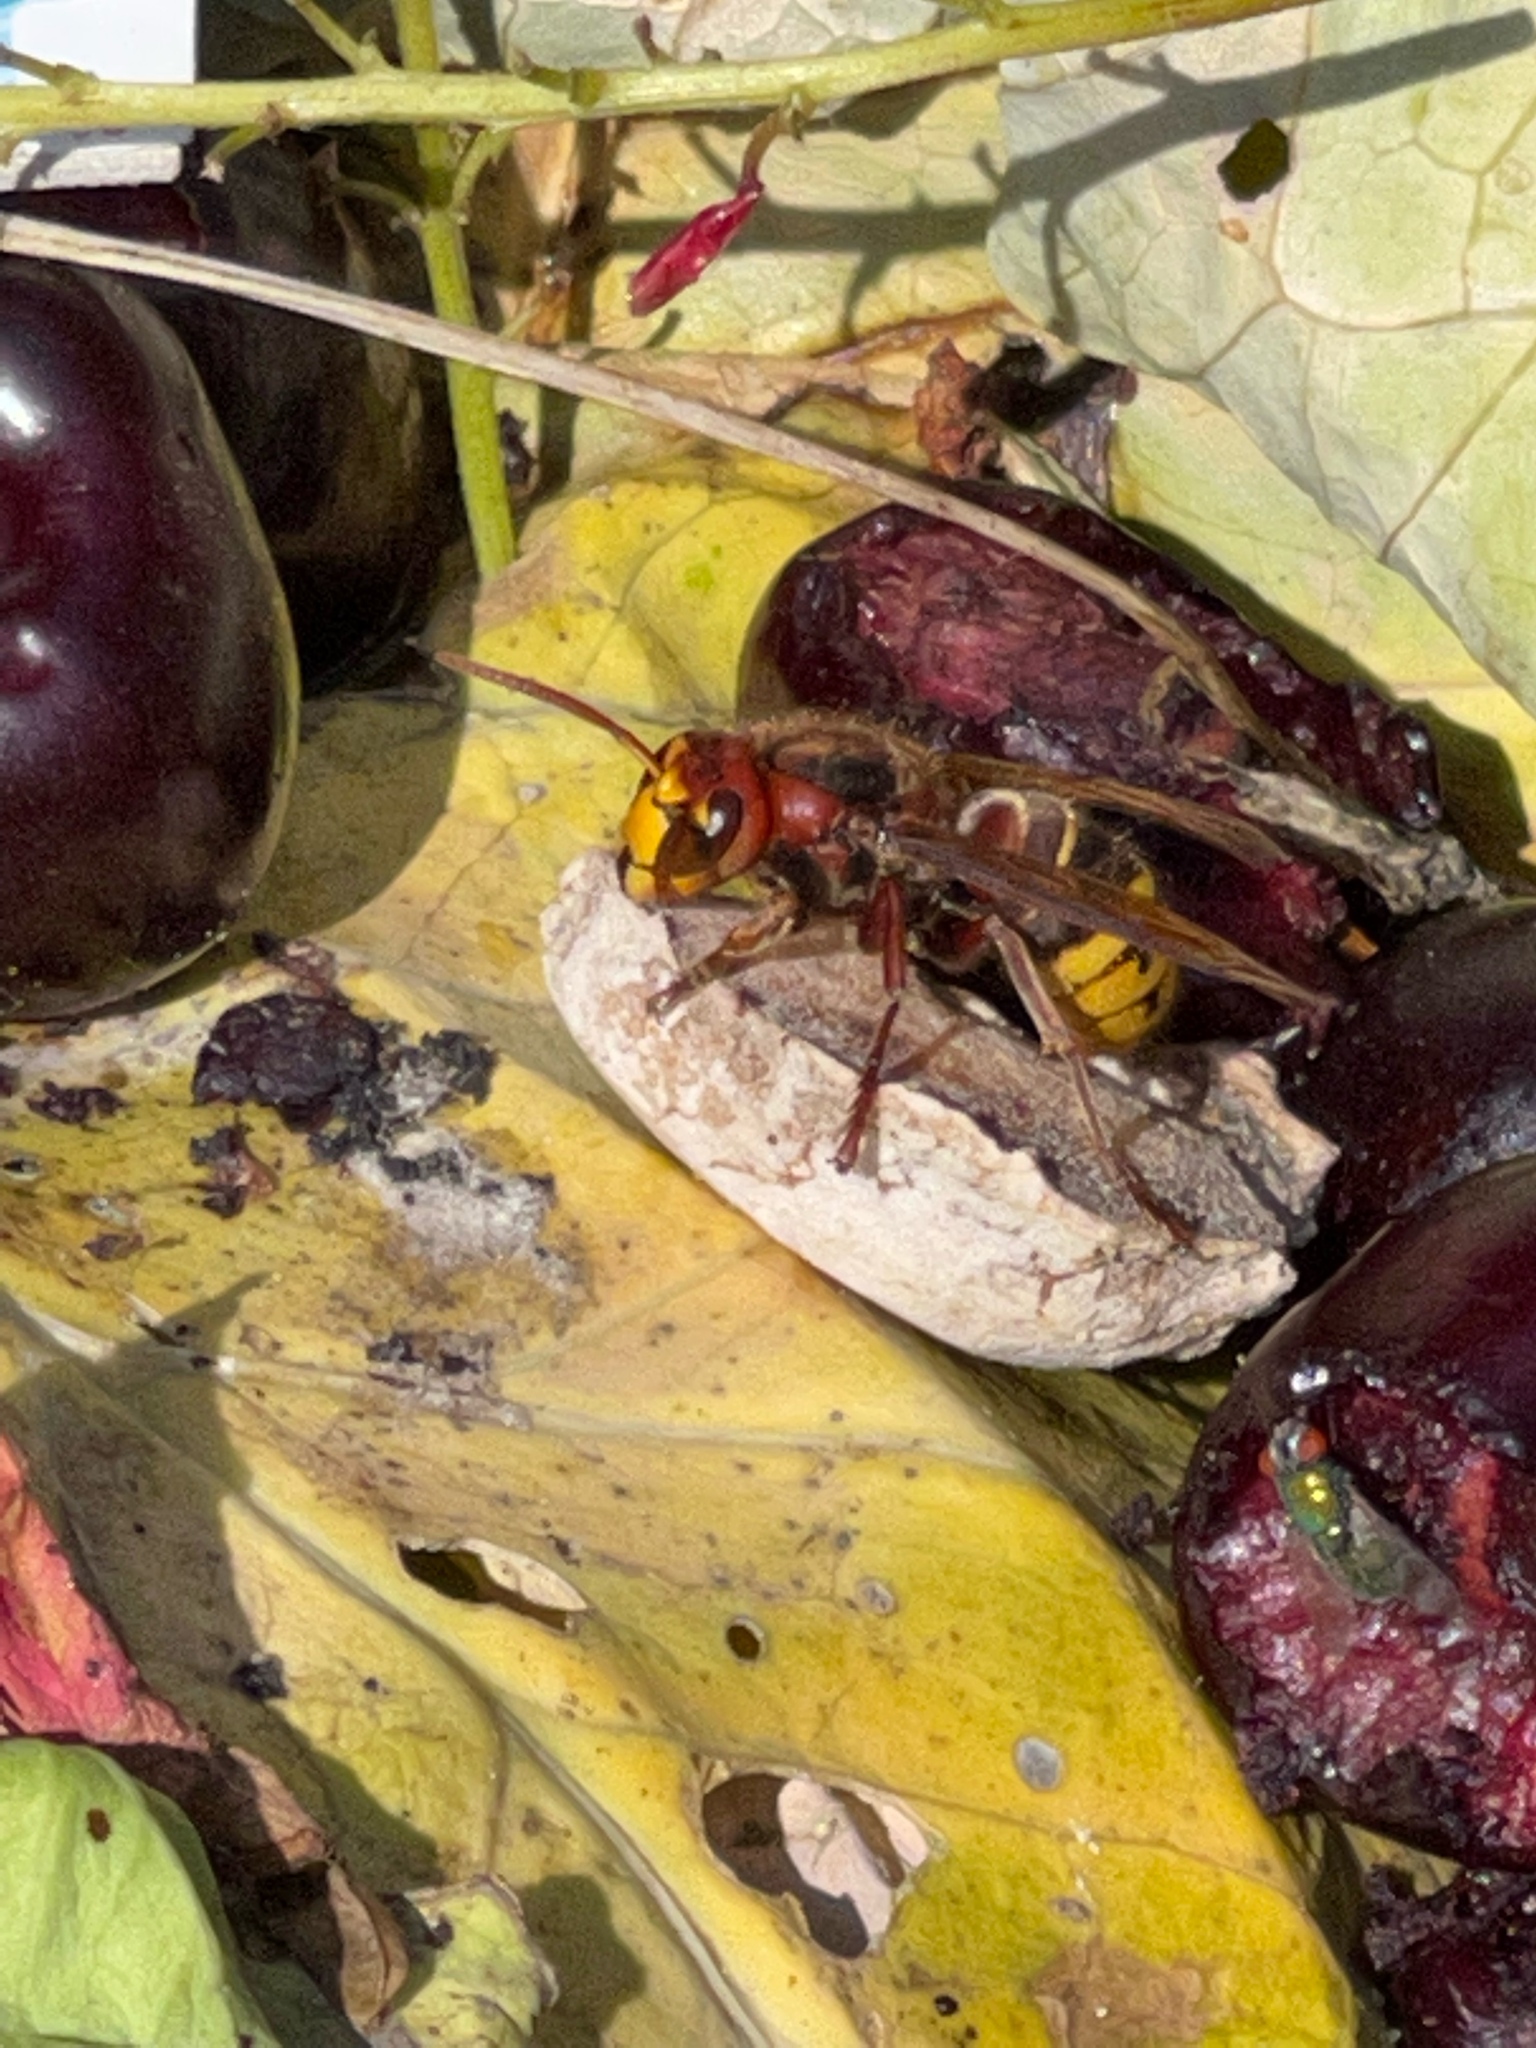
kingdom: Animalia
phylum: Arthropoda
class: Insecta
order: Hymenoptera
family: Vespidae
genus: Vespa
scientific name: Vespa crabro
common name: Hornet
